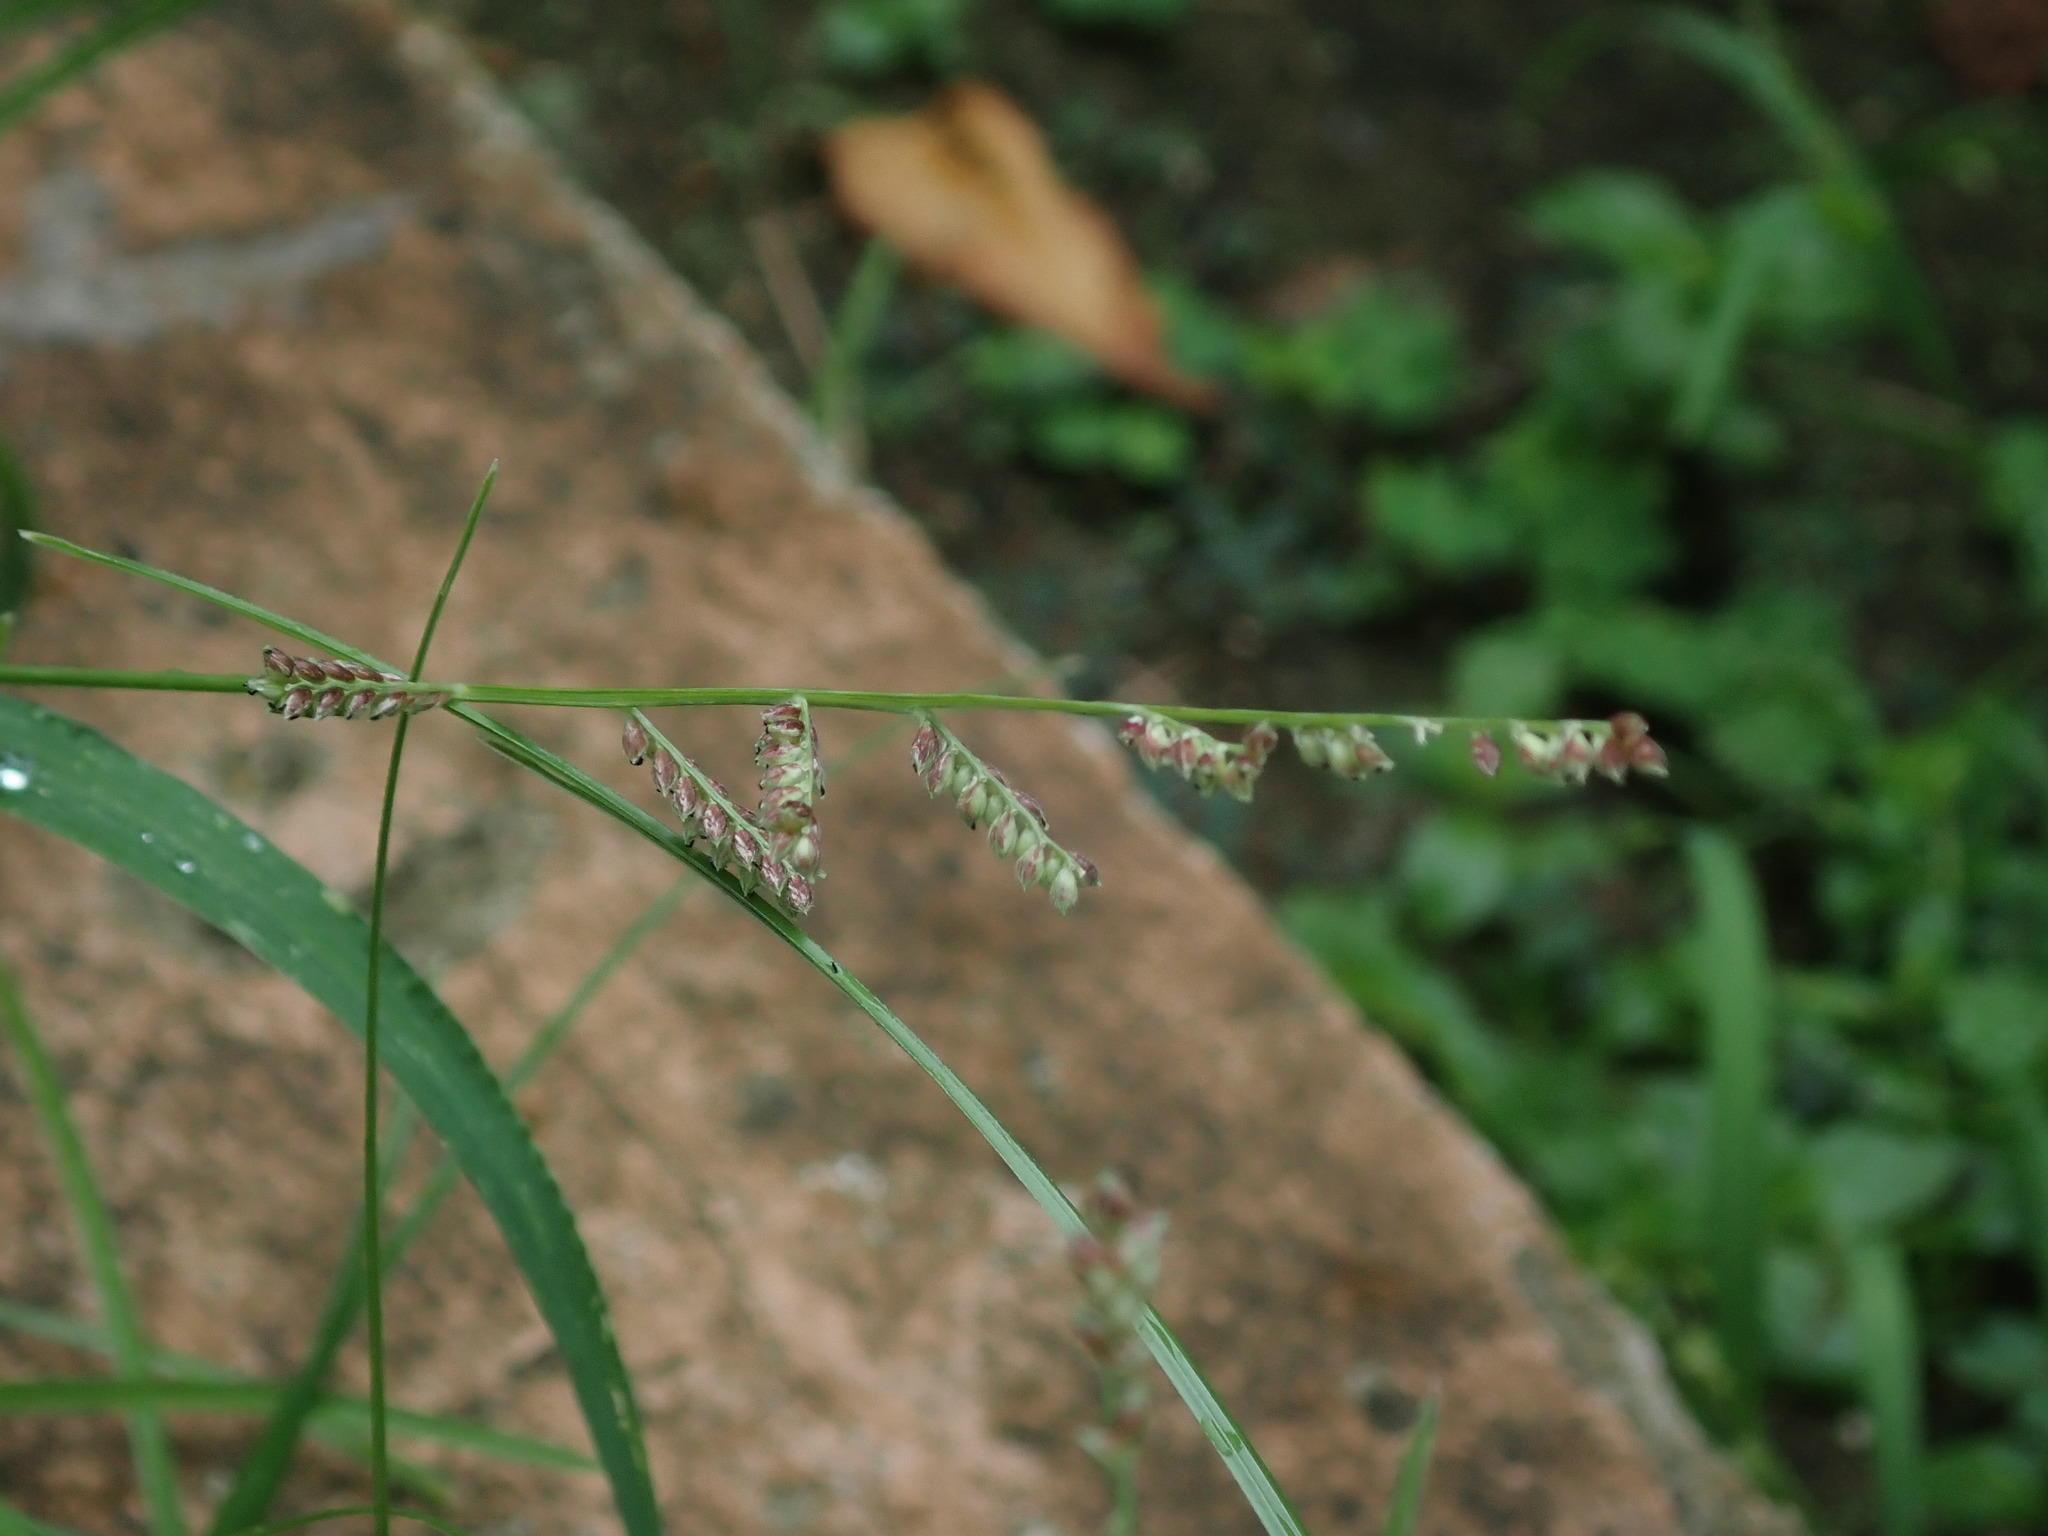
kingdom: Plantae
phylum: Tracheophyta
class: Liliopsida
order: Poales
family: Poaceae
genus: Echinochloa
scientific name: Echinochloa colonum
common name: Jungle rice
